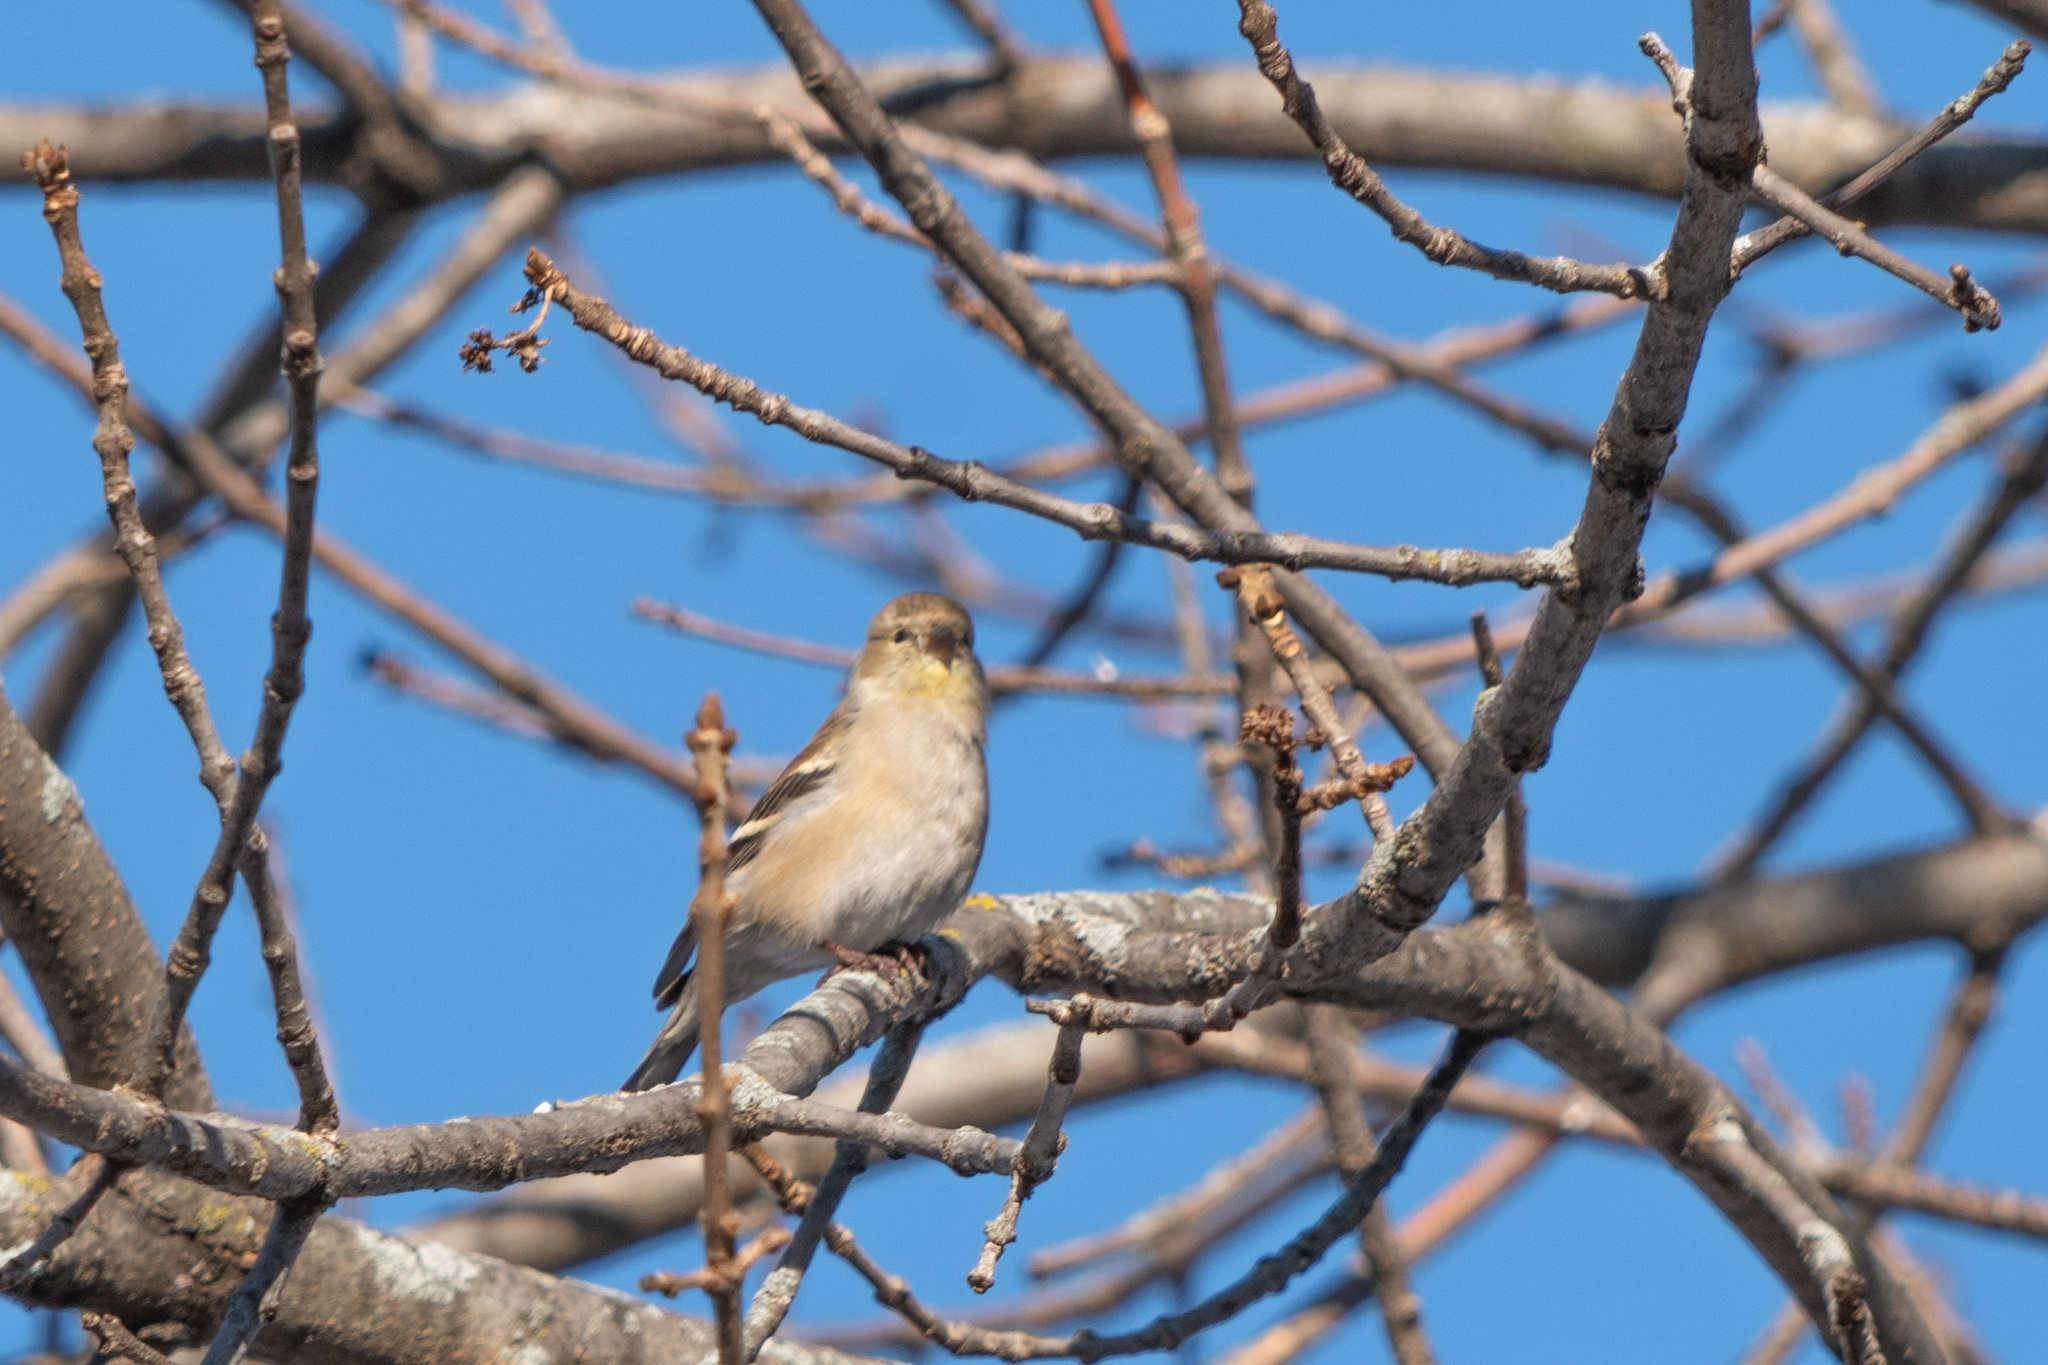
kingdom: Animalia
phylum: Chordata
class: Aves
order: Passeriformes
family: Fringillidae
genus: Spinus
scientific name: Spinus tristis
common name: American goldfinch
